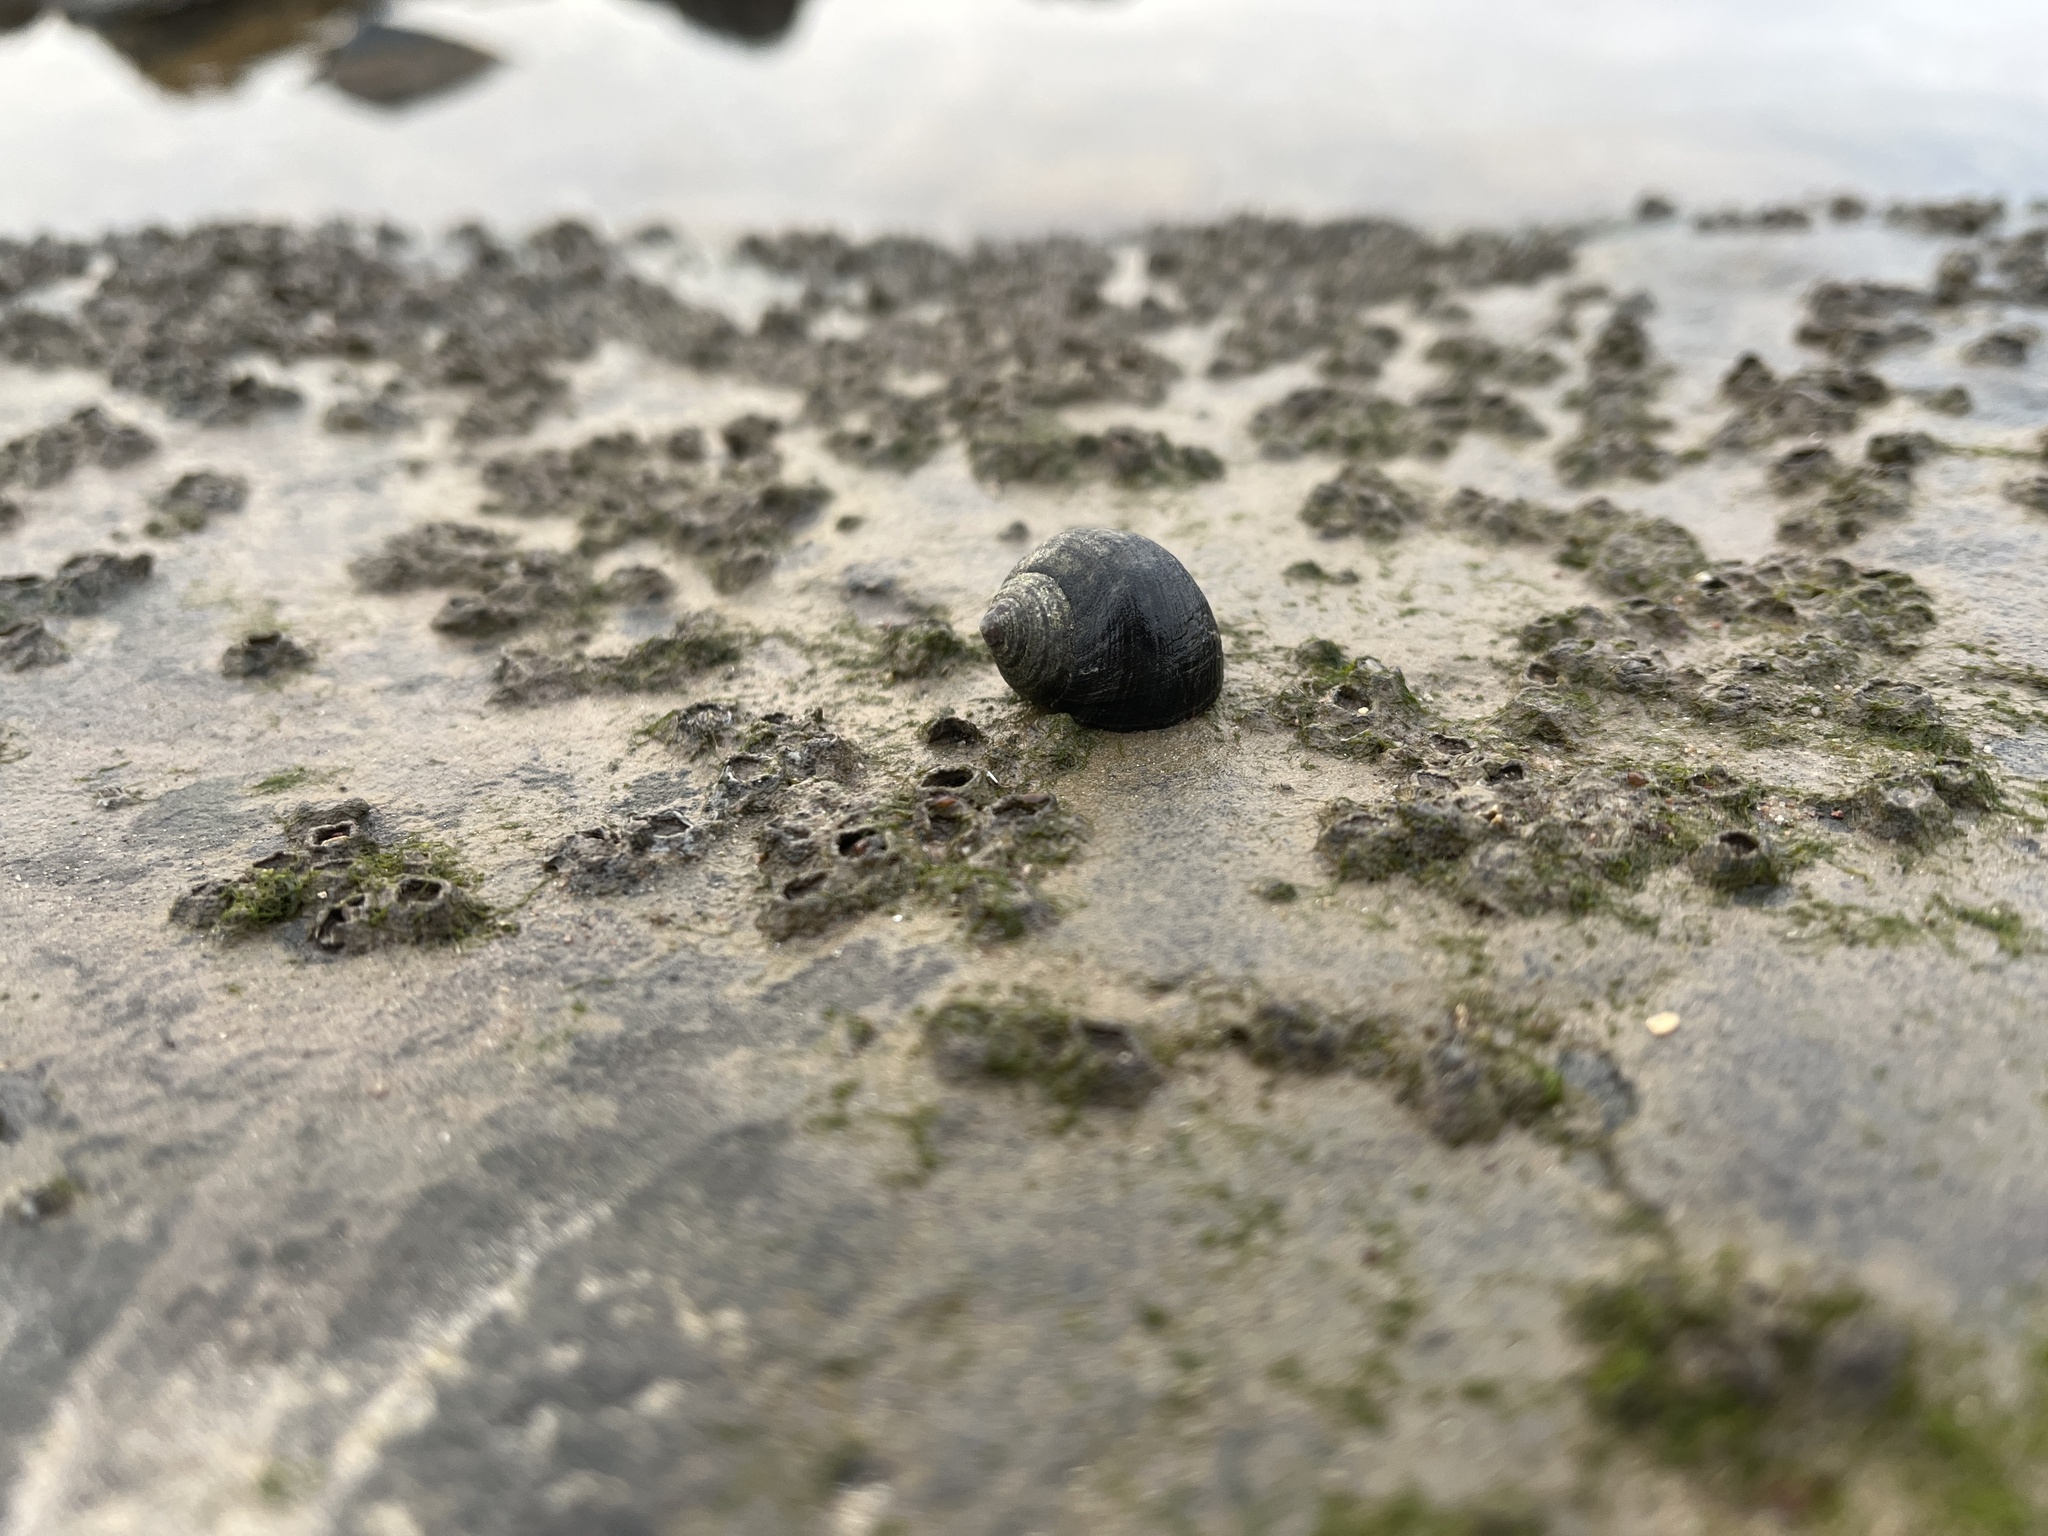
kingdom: Animalia
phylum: Mollusca
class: Gastropoda
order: Littorinimorpha
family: Littorinidae
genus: Littorina
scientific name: Littorina littorea
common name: Common periwinkle
